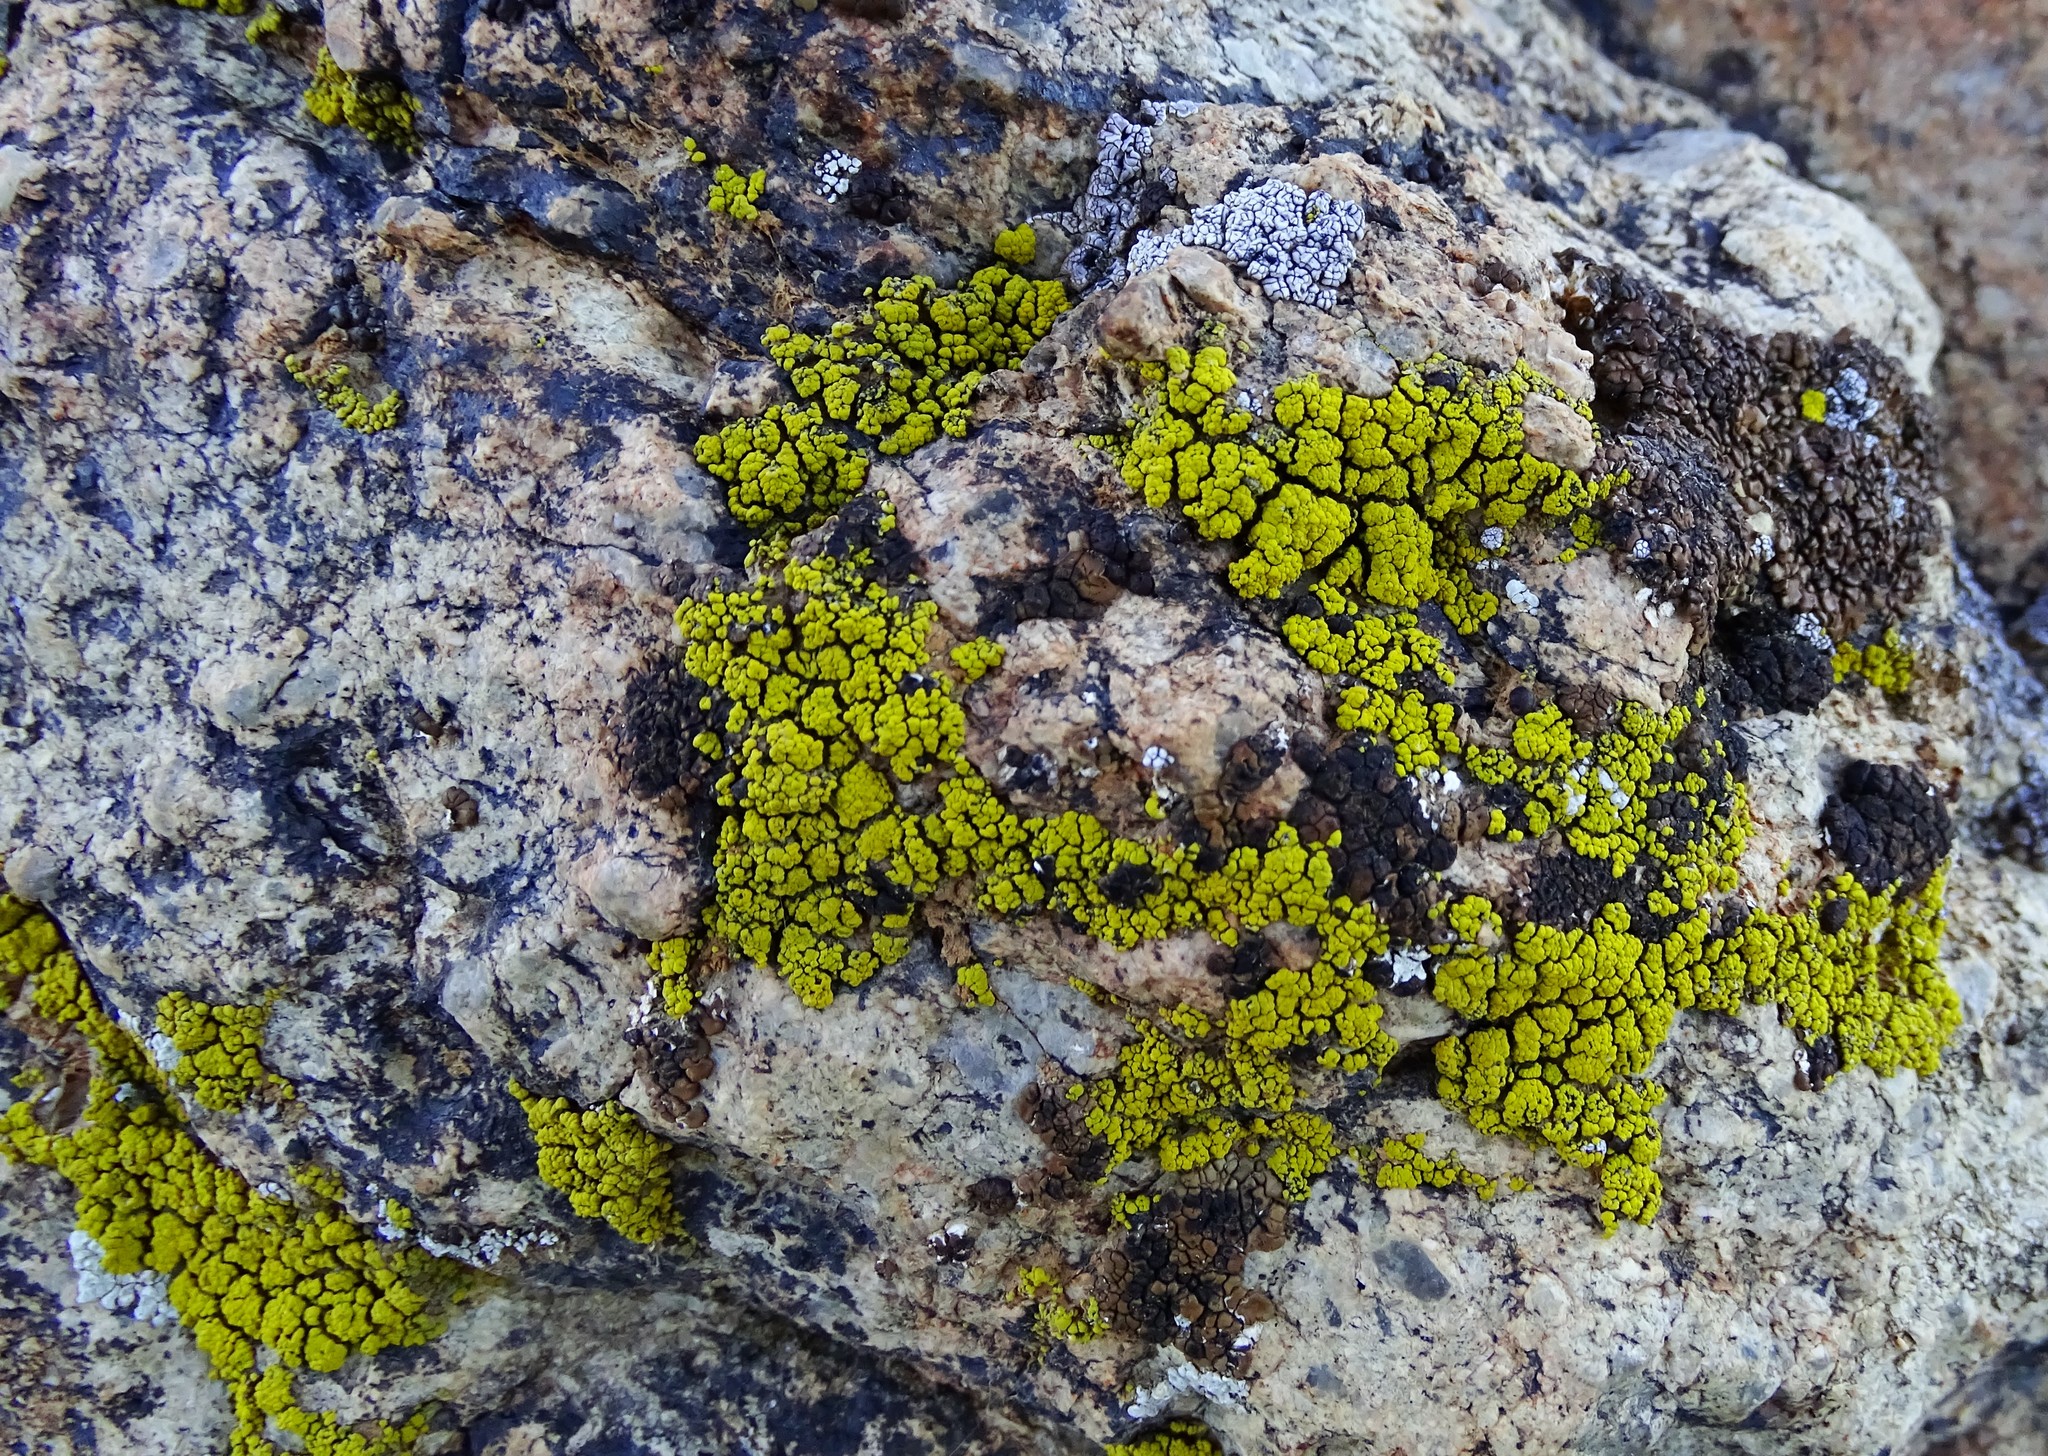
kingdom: Fungi
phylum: Ascomycota
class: Lecanoromycetes
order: Acarosporales
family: Acarosporaceae
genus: Acarospora
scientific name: Acarospora socialis
